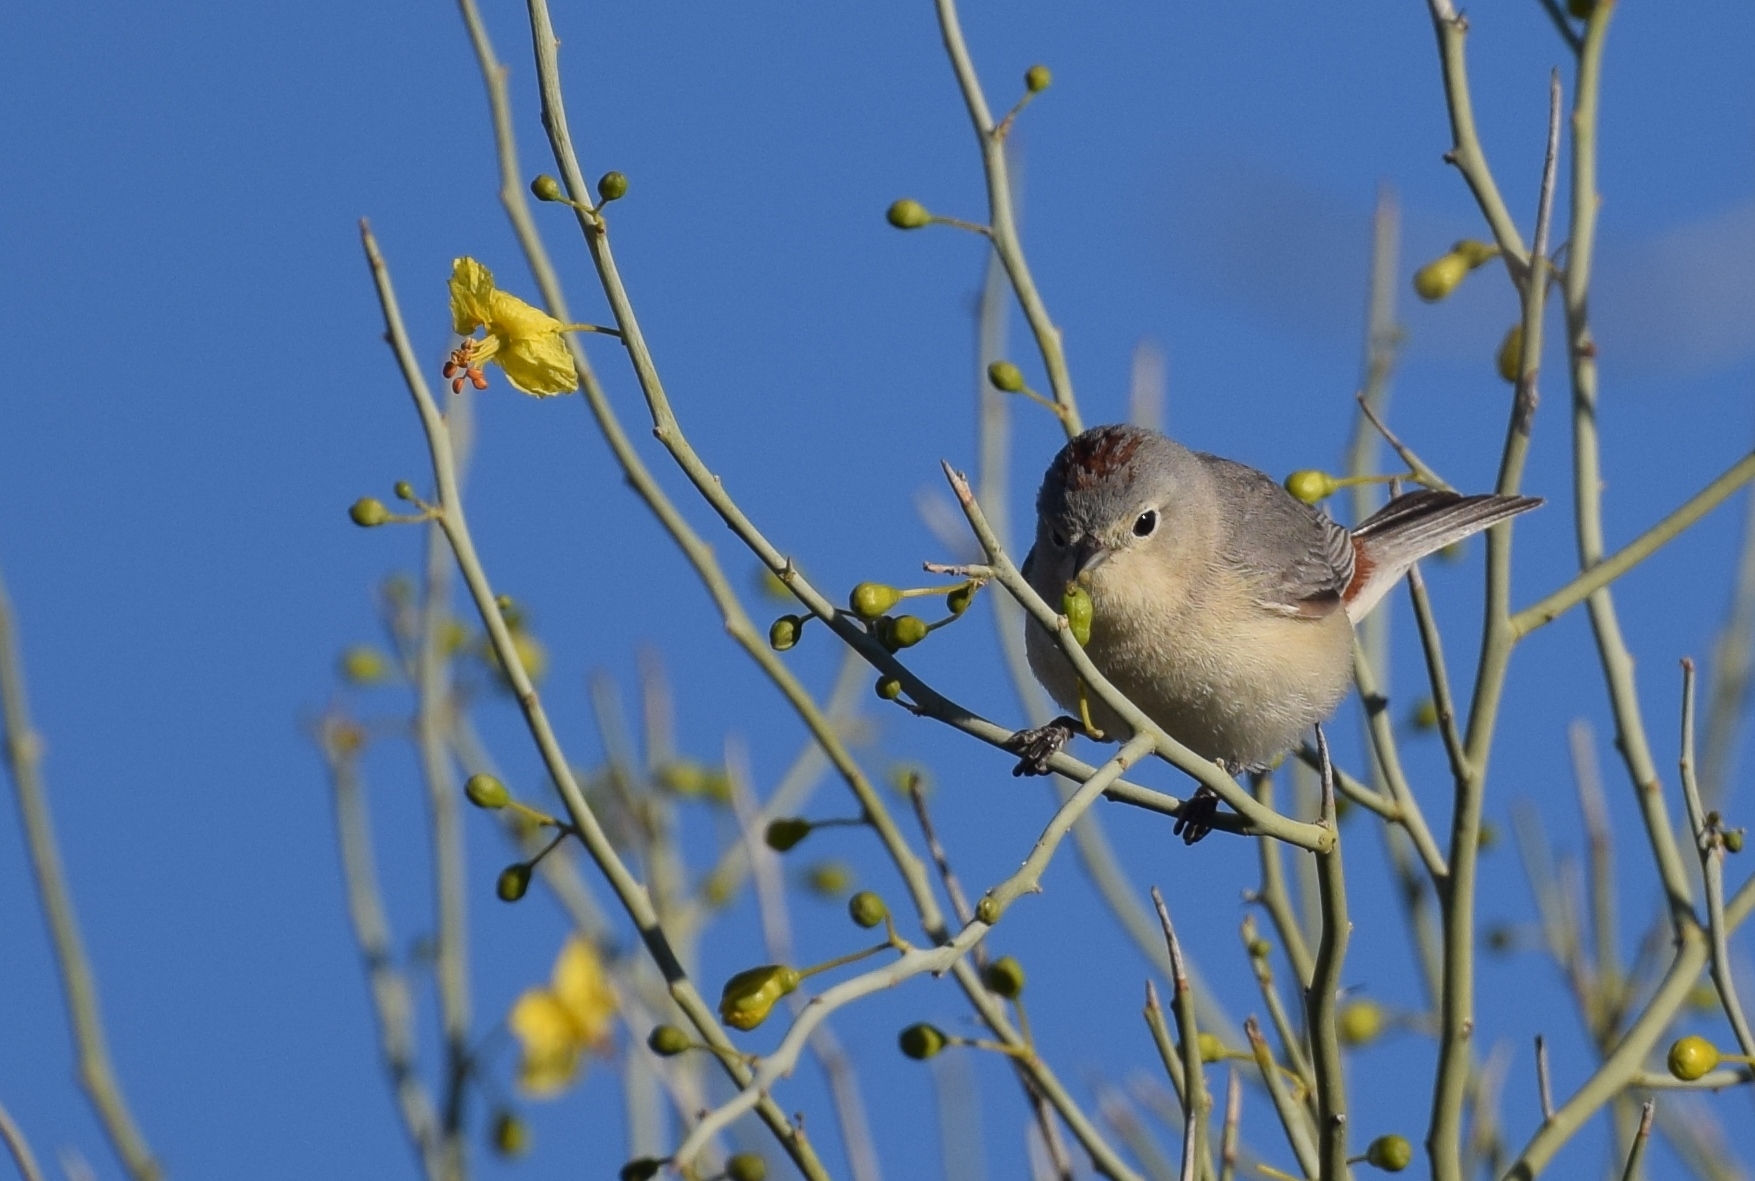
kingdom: Animalia
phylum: Chordata
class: Aves
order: Passeriformes
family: Parulidae
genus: Leiothlypis
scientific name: Leiothlypis luciae
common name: Lucy's warbler
